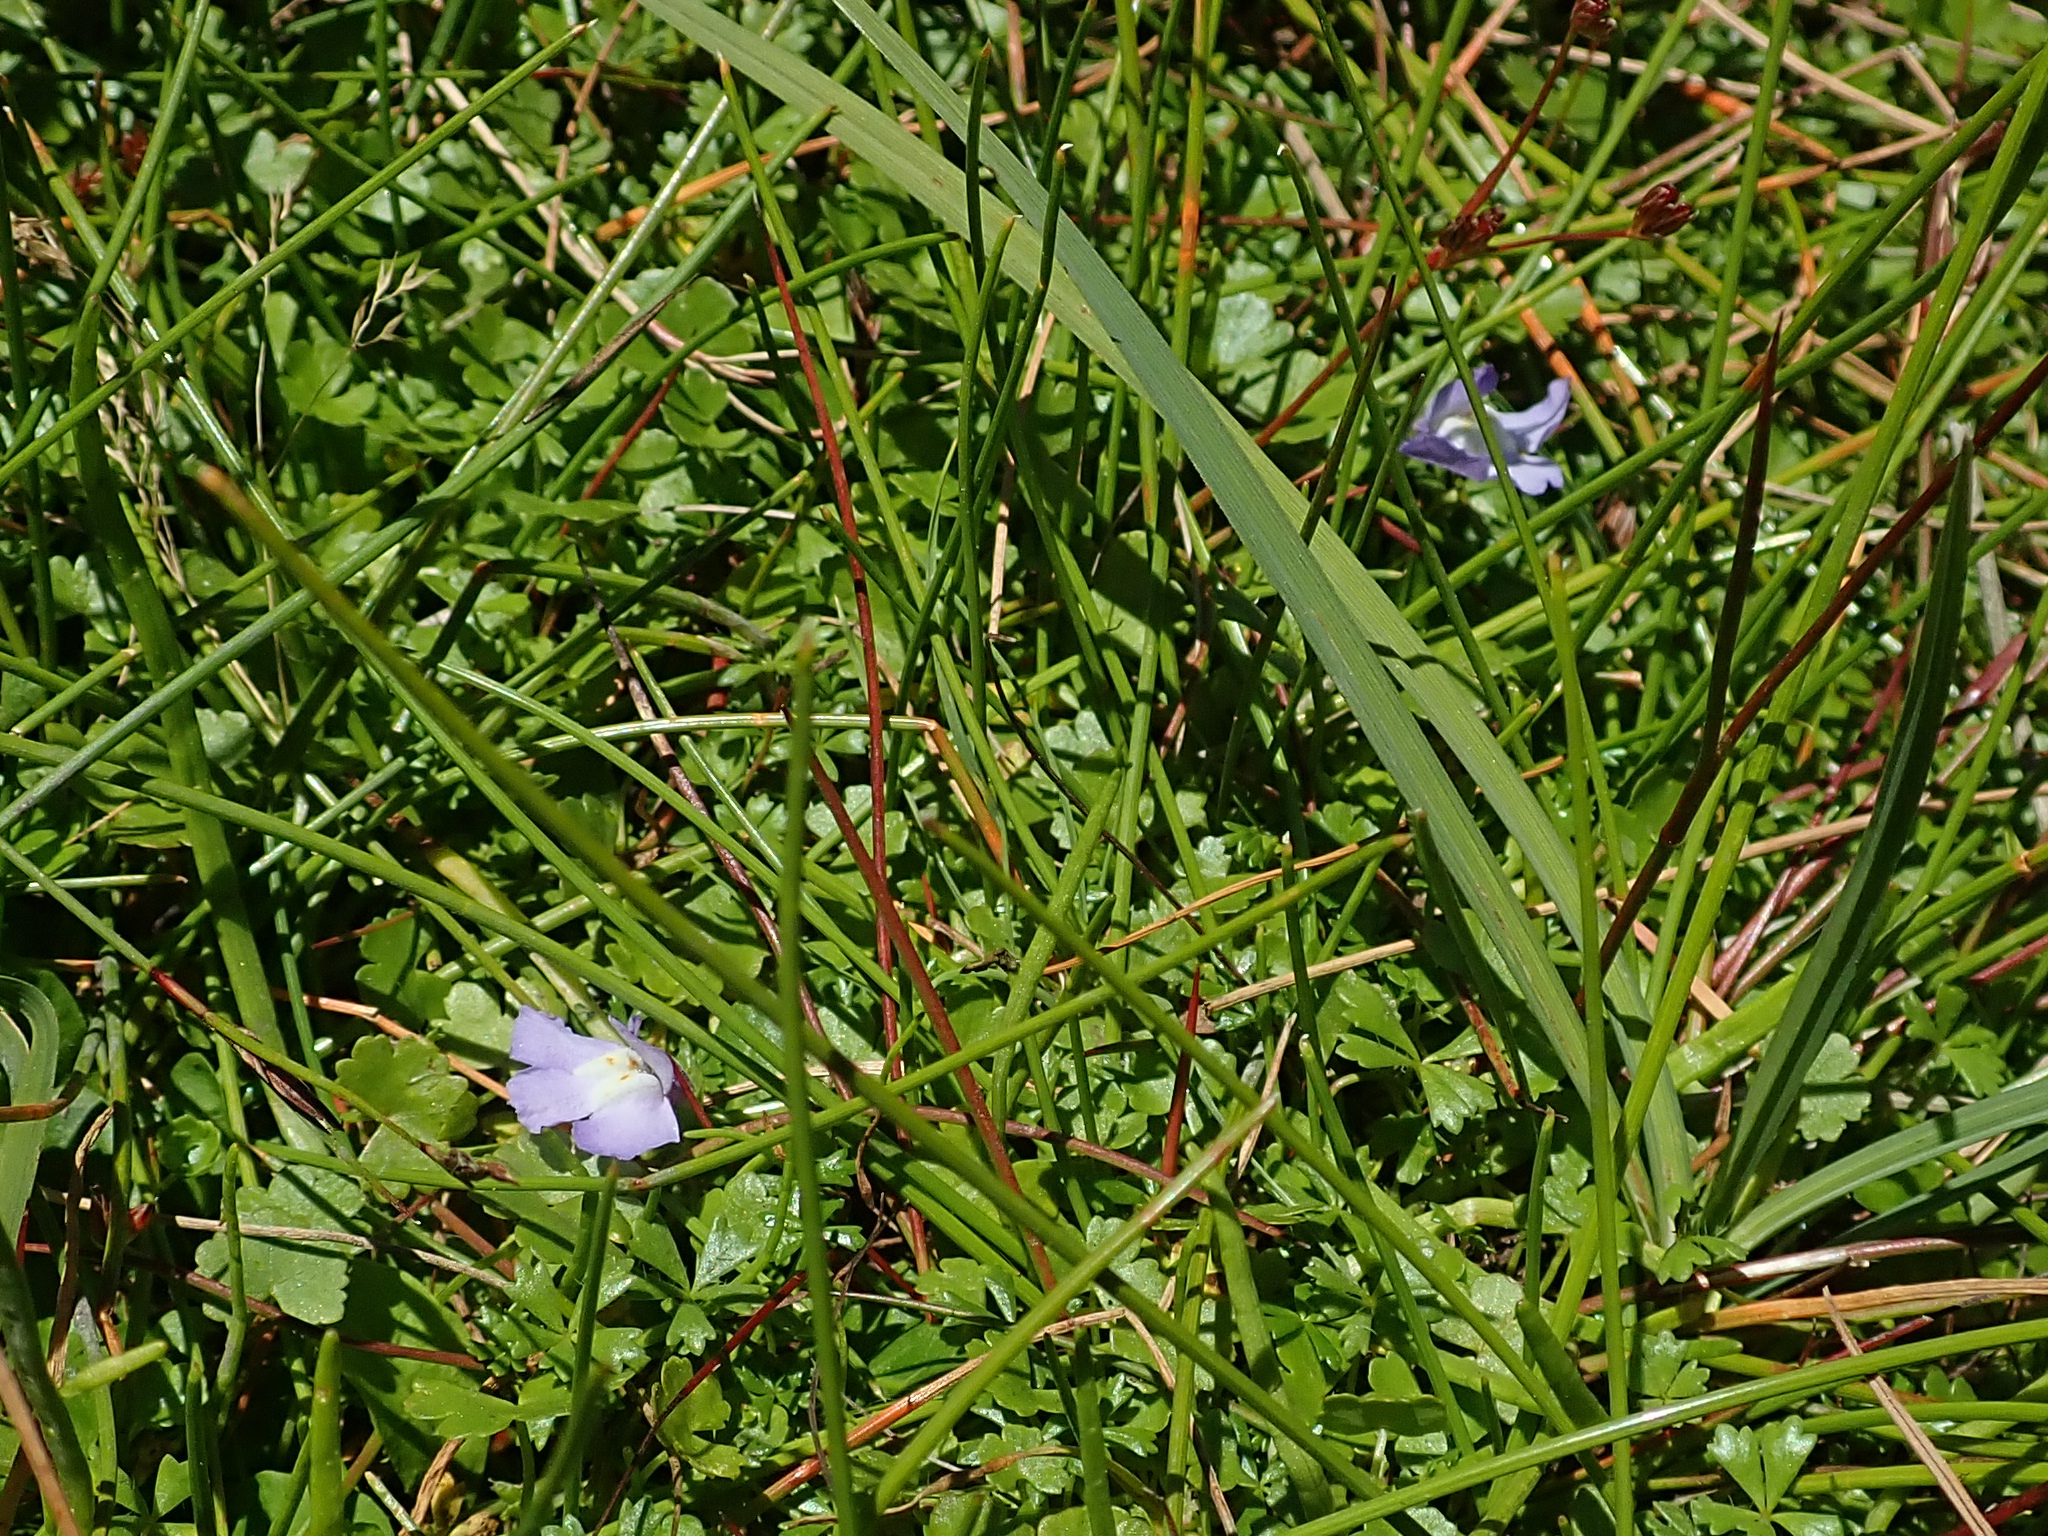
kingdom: Plantae
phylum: Tracheophyta
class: Magnoliopsida
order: Lamiales
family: Mazaceae
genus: Mazus
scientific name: Mazus pumilio
